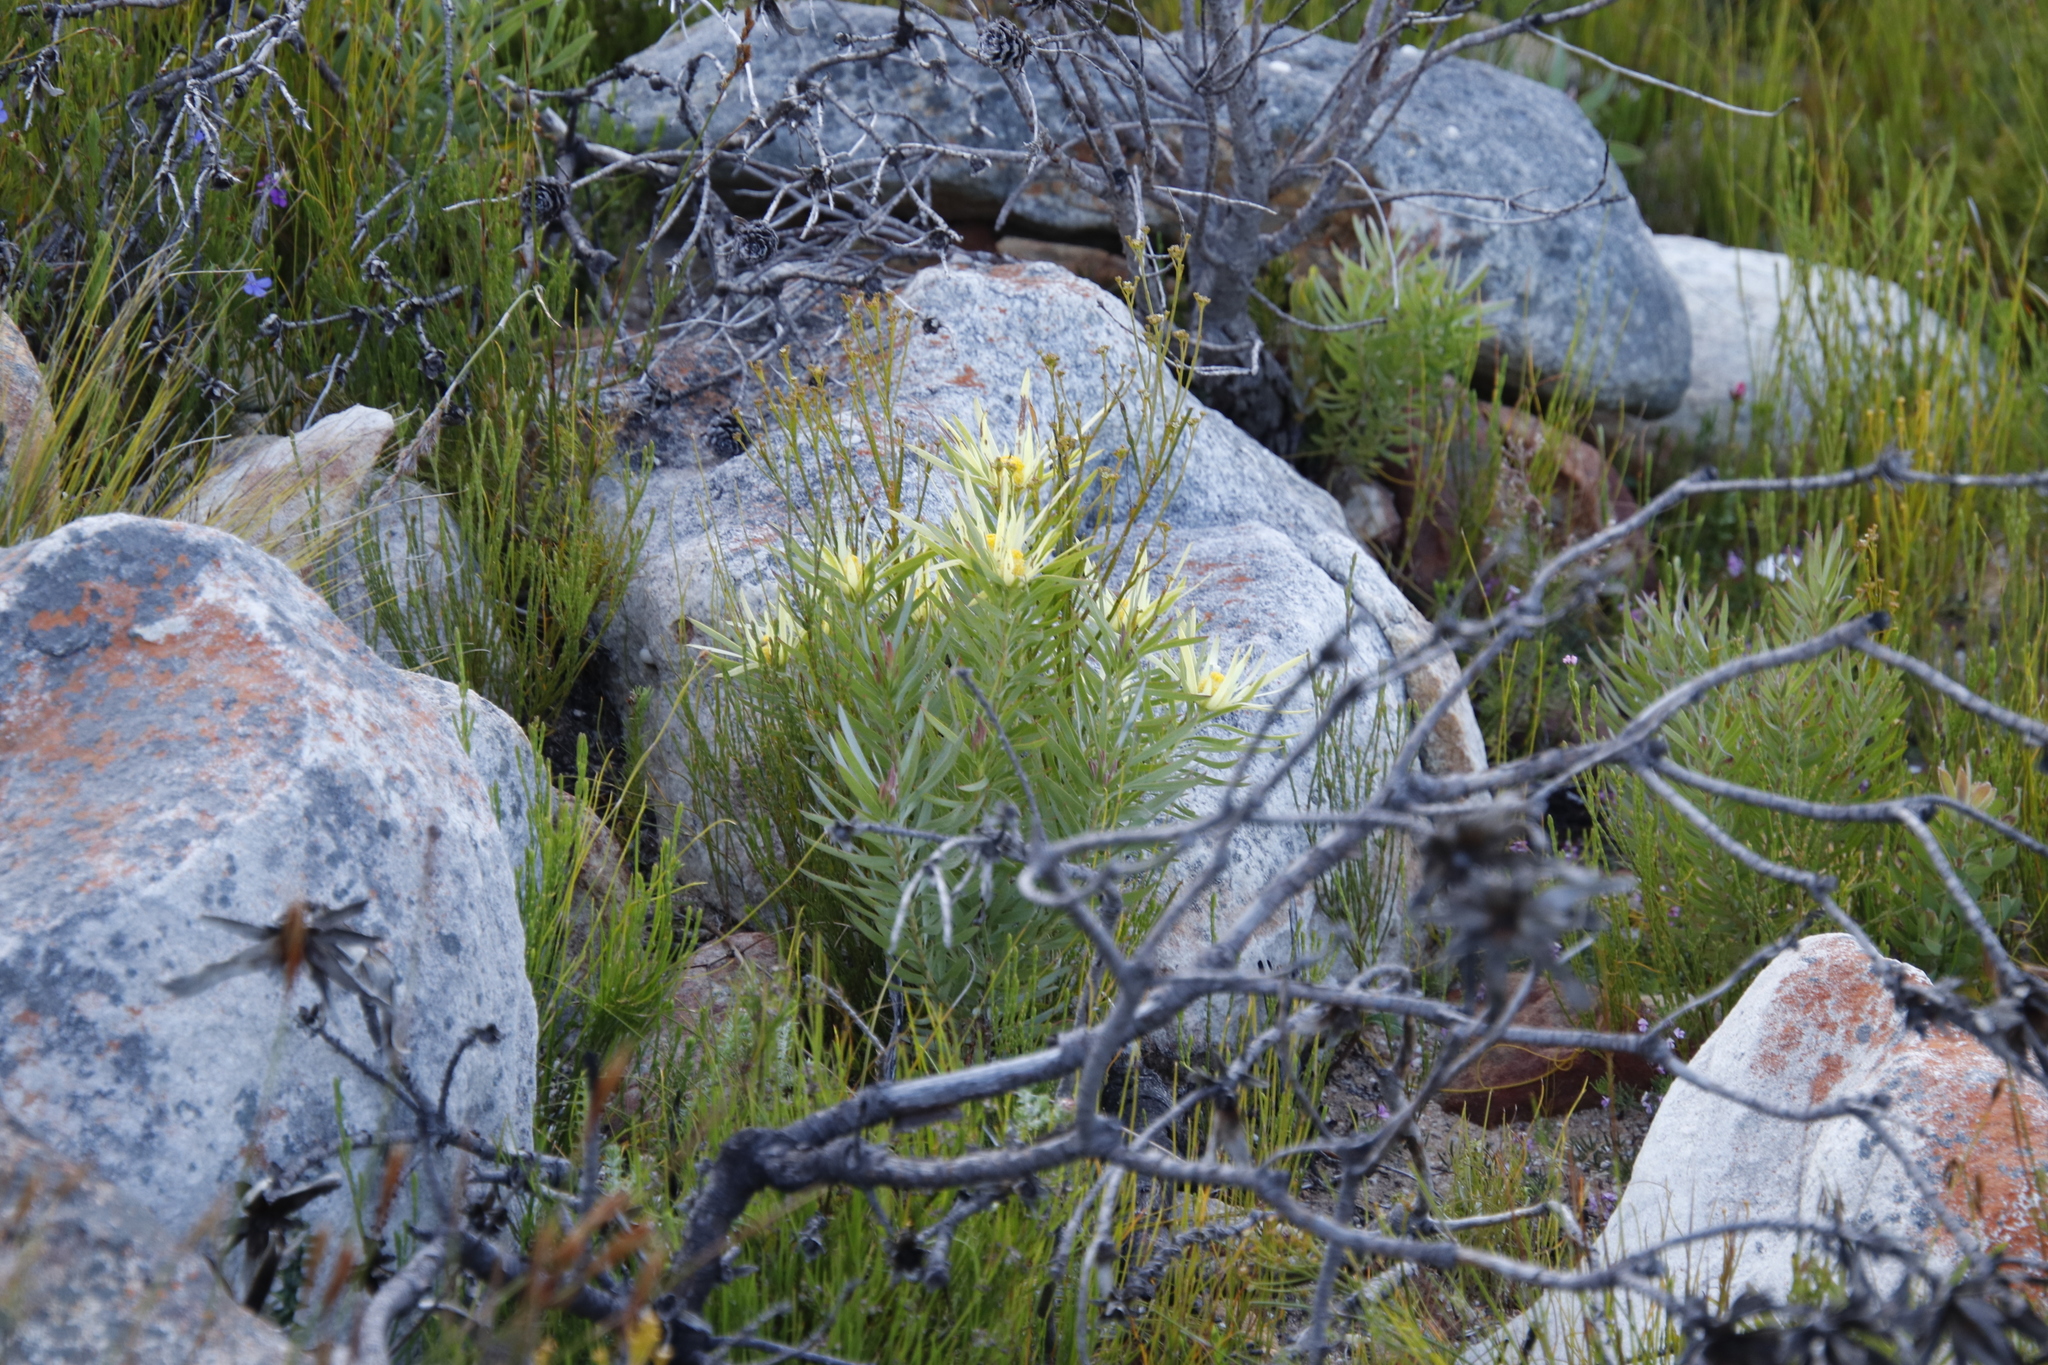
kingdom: Plantae
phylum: Tracheophyta
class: Magnoliopsida
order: Proteales
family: Proteaceae
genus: Leucadendron
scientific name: Leucadendron xanthoconus
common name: Sickle-leaf conebush
